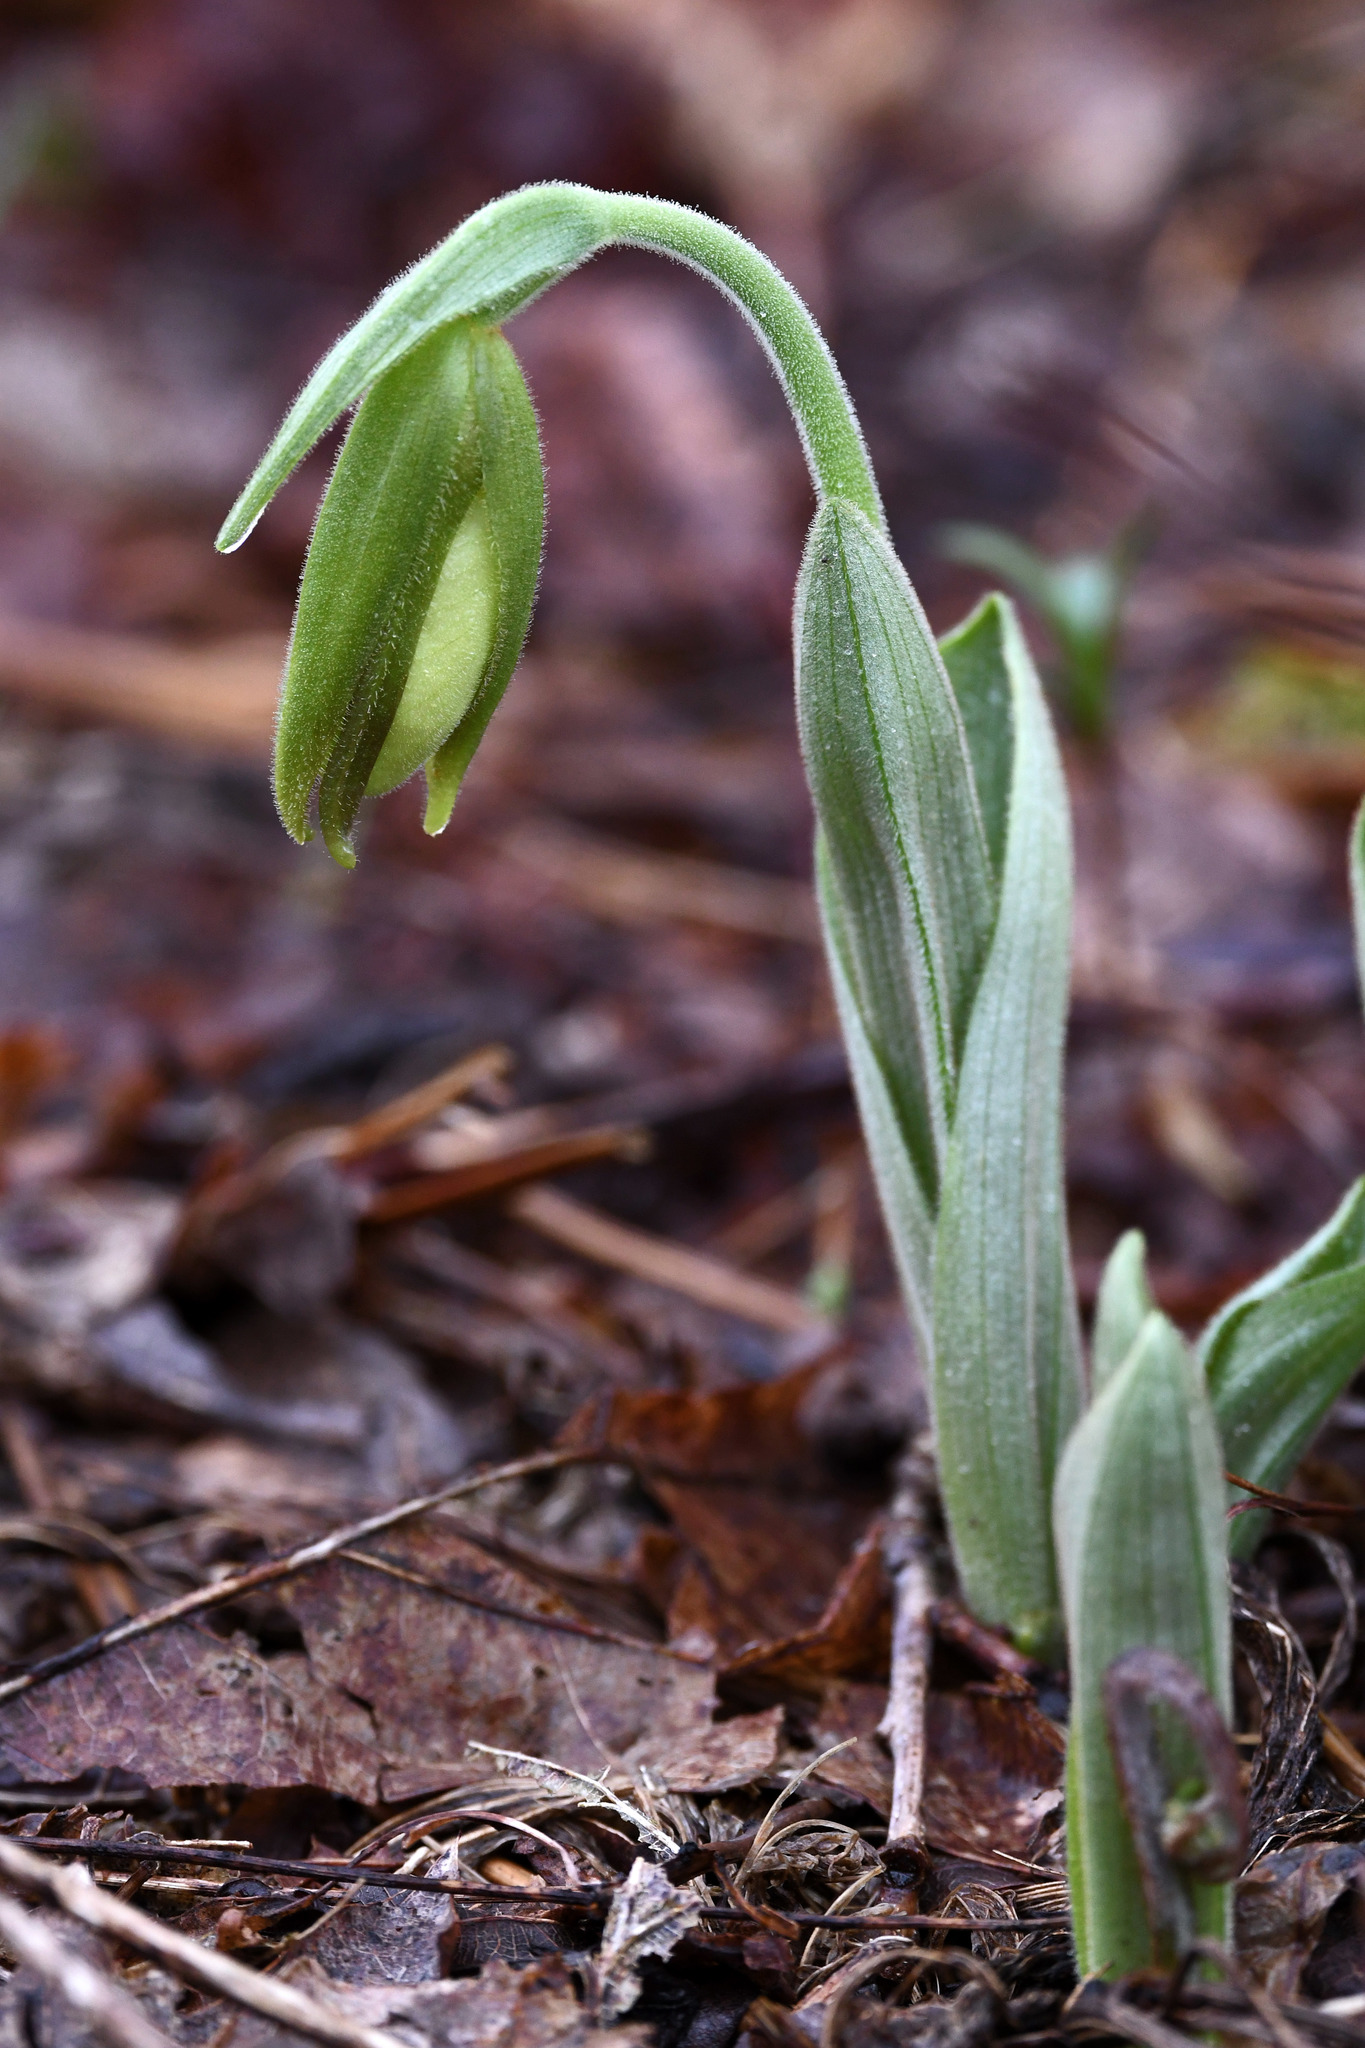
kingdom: Plantae
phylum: Tracheophyta
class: Liliopsida
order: Asparagales
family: Orchidaceae
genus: Cypripedium
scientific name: Cypripedium acaule
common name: Pink lady's-slipper
